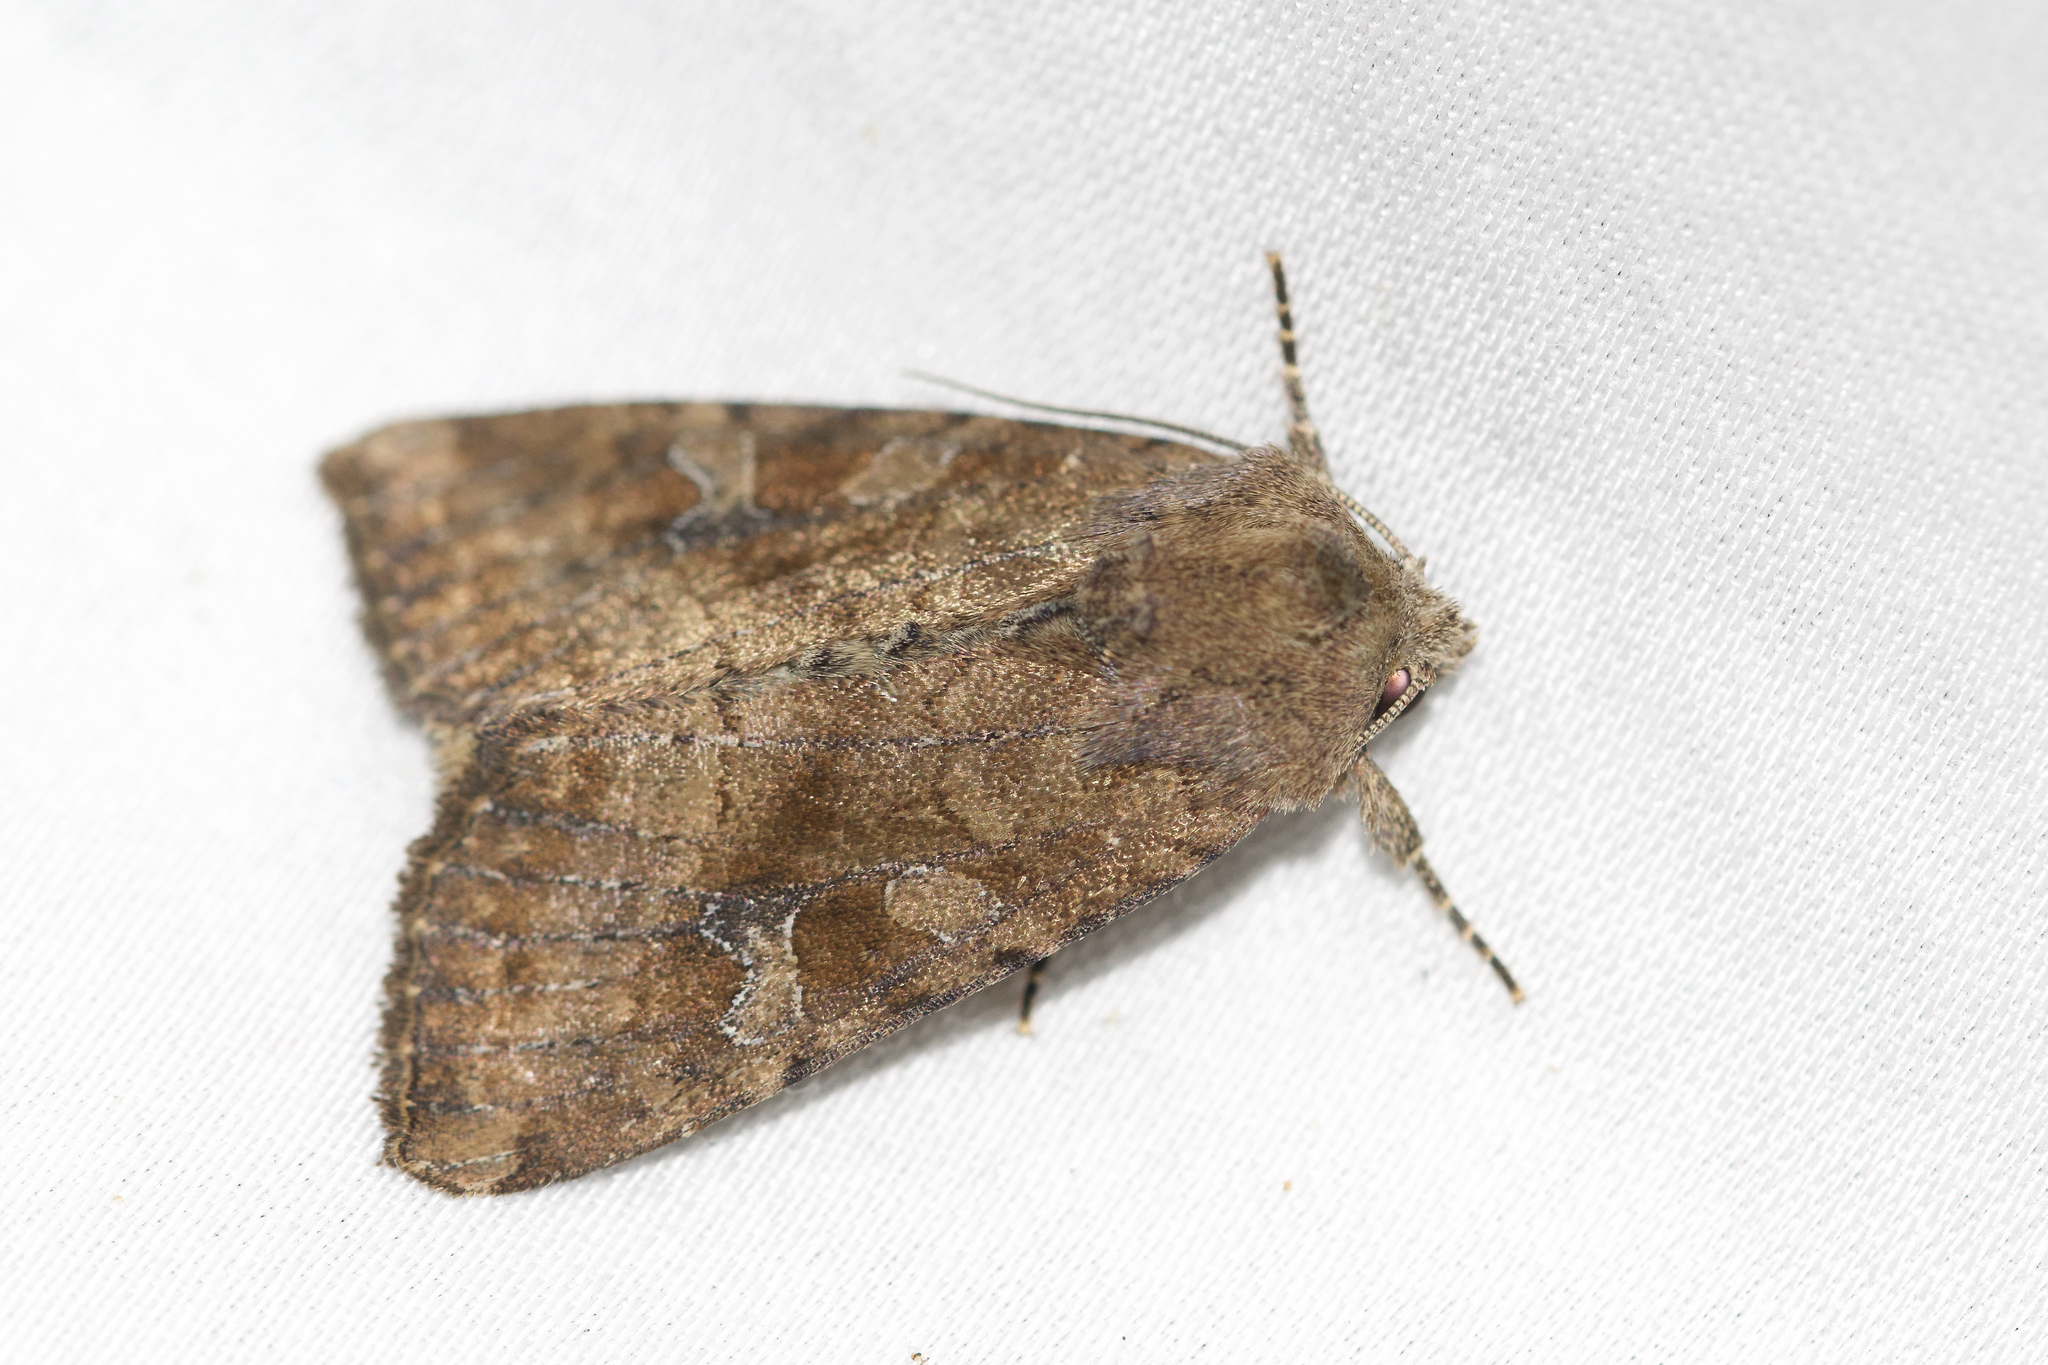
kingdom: Animalia
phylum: Arthropoda
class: Insecta
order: Lepidoptera
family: Noctuidae
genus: Loscopia
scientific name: Loscopia velata
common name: Veiled ear moth
